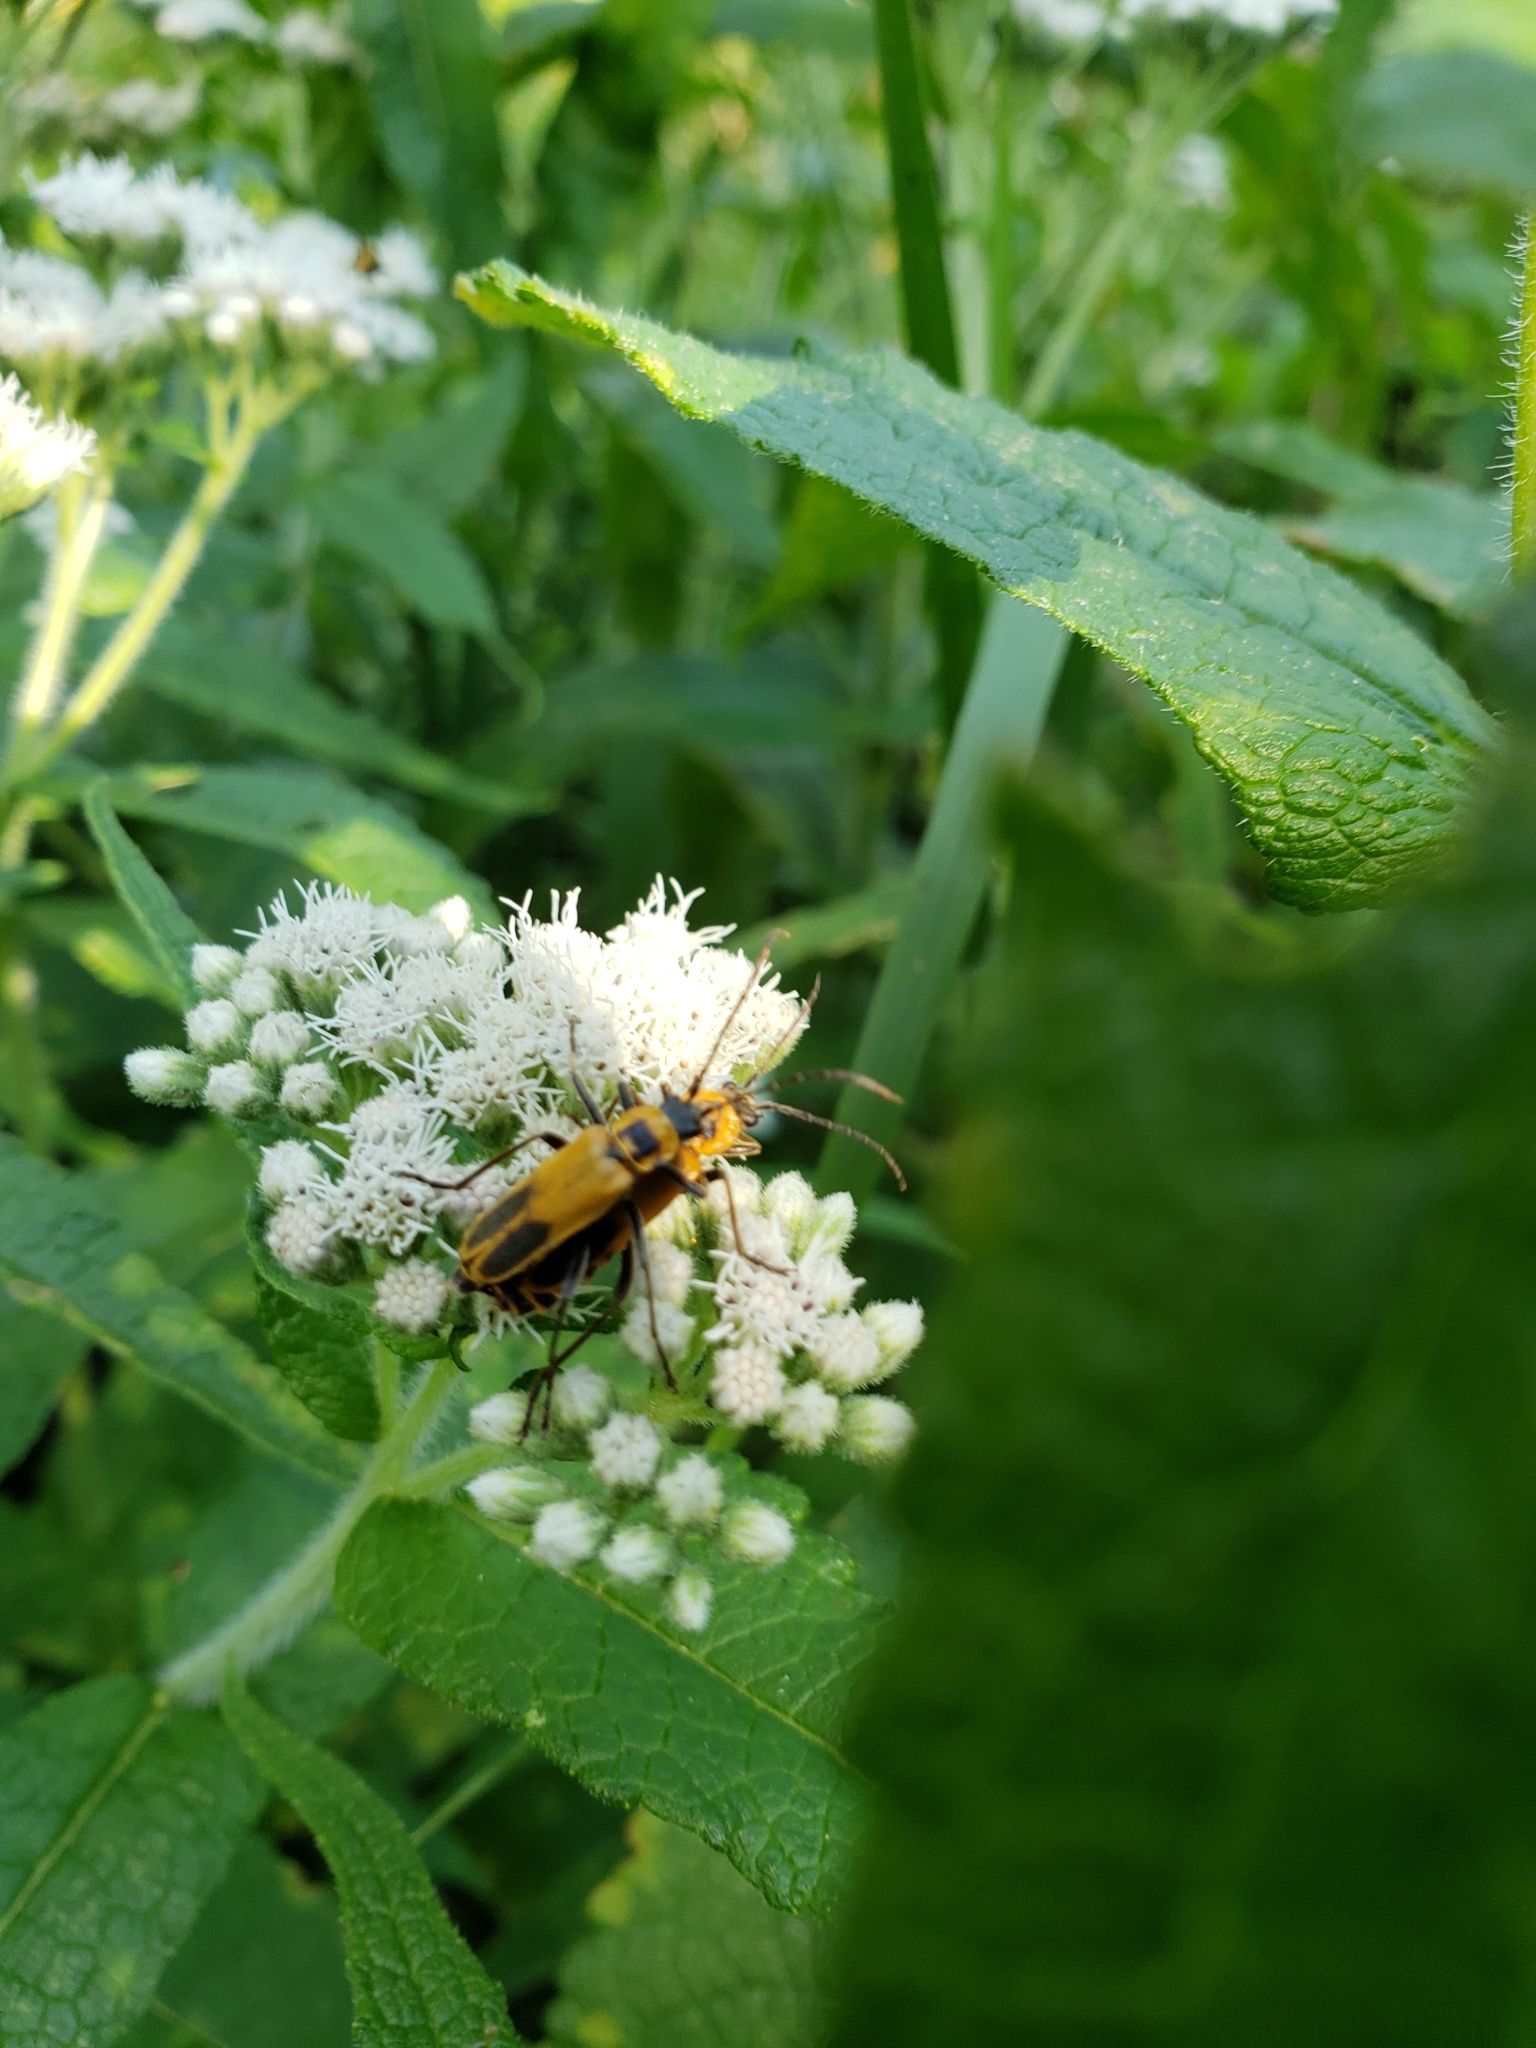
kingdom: Animalia
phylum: Arthropoda
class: Insecta
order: Coleoptera
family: Cantharidae
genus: Chauliognathus
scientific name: Chauliognathus pensylvanicus
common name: Goldenrod soldier beetle
